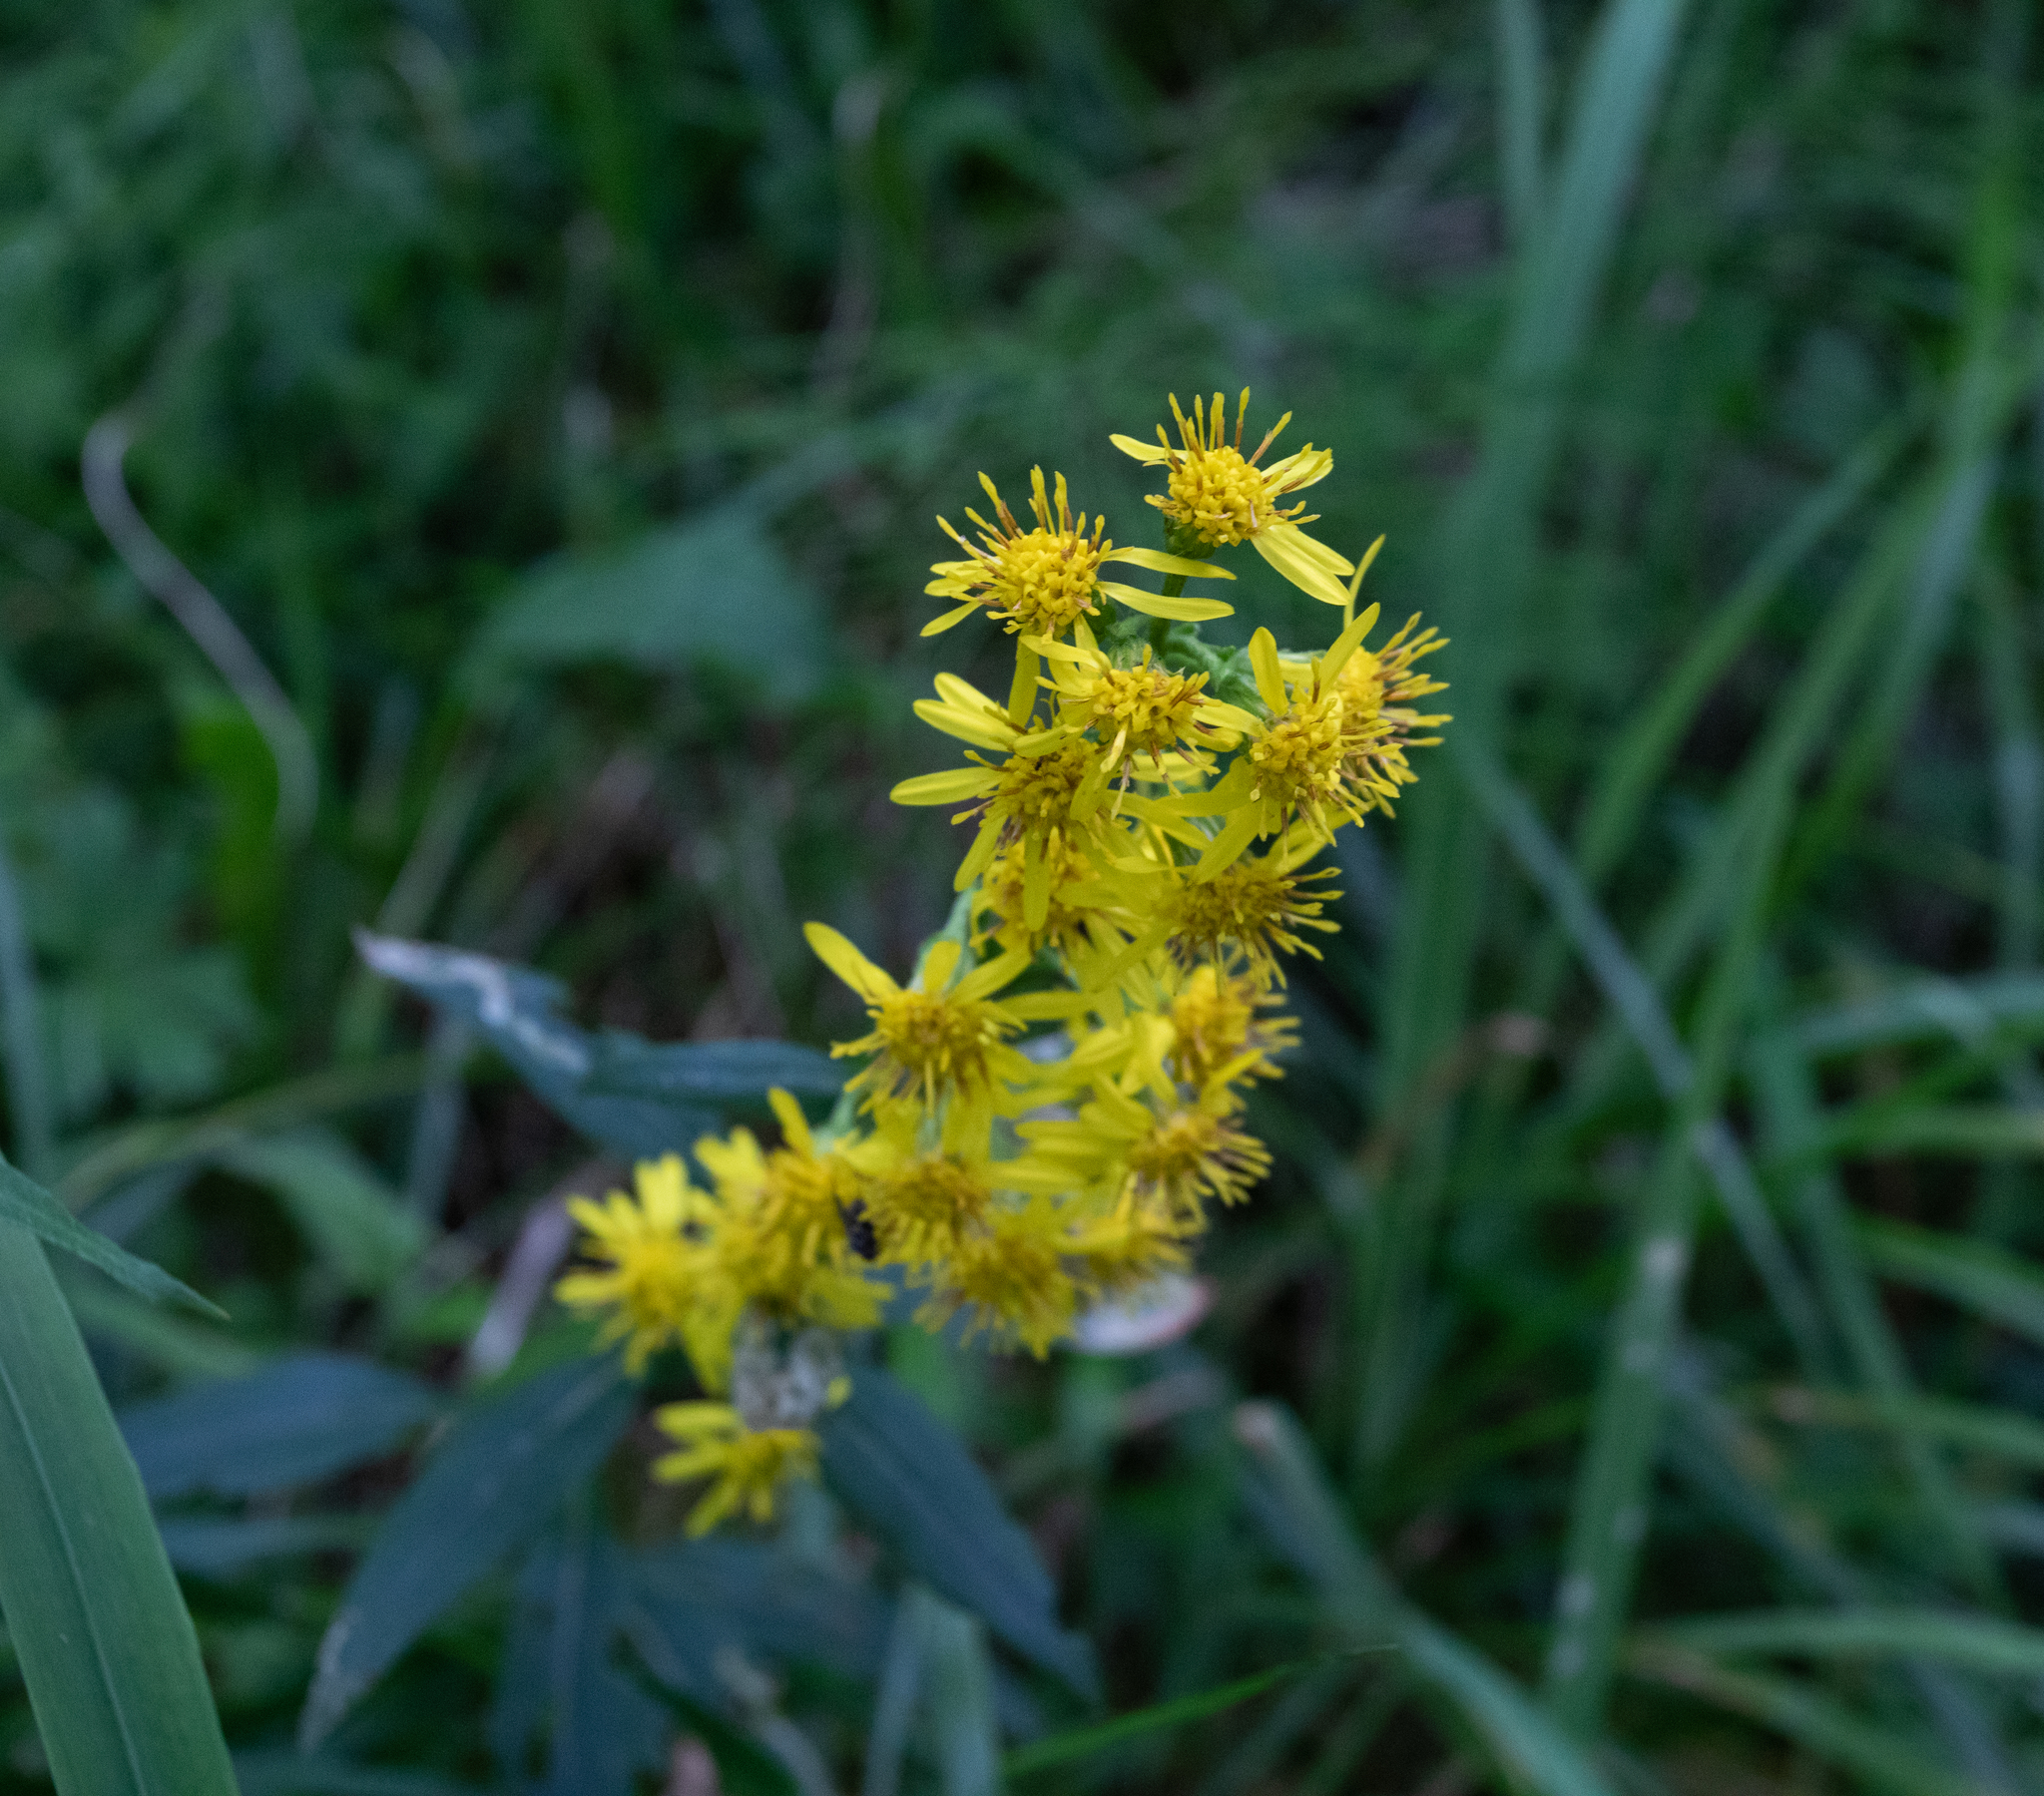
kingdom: Plantae
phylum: Tracheophyta
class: Magnoliopsida
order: Asterales
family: Asteraceae
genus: Solidago
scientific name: Solidago virgaurea
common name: Goldenrod
